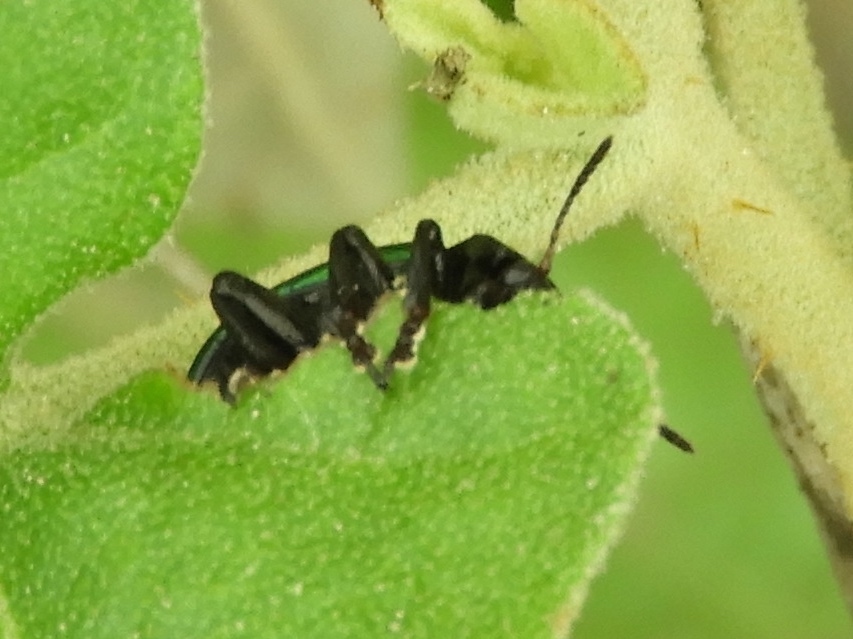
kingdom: Animalia
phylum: Arthropoda
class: Insecta
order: Coleoptera
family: Chrysomelidae
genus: Leptinotarsa
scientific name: Leptinotarsa haldemani
